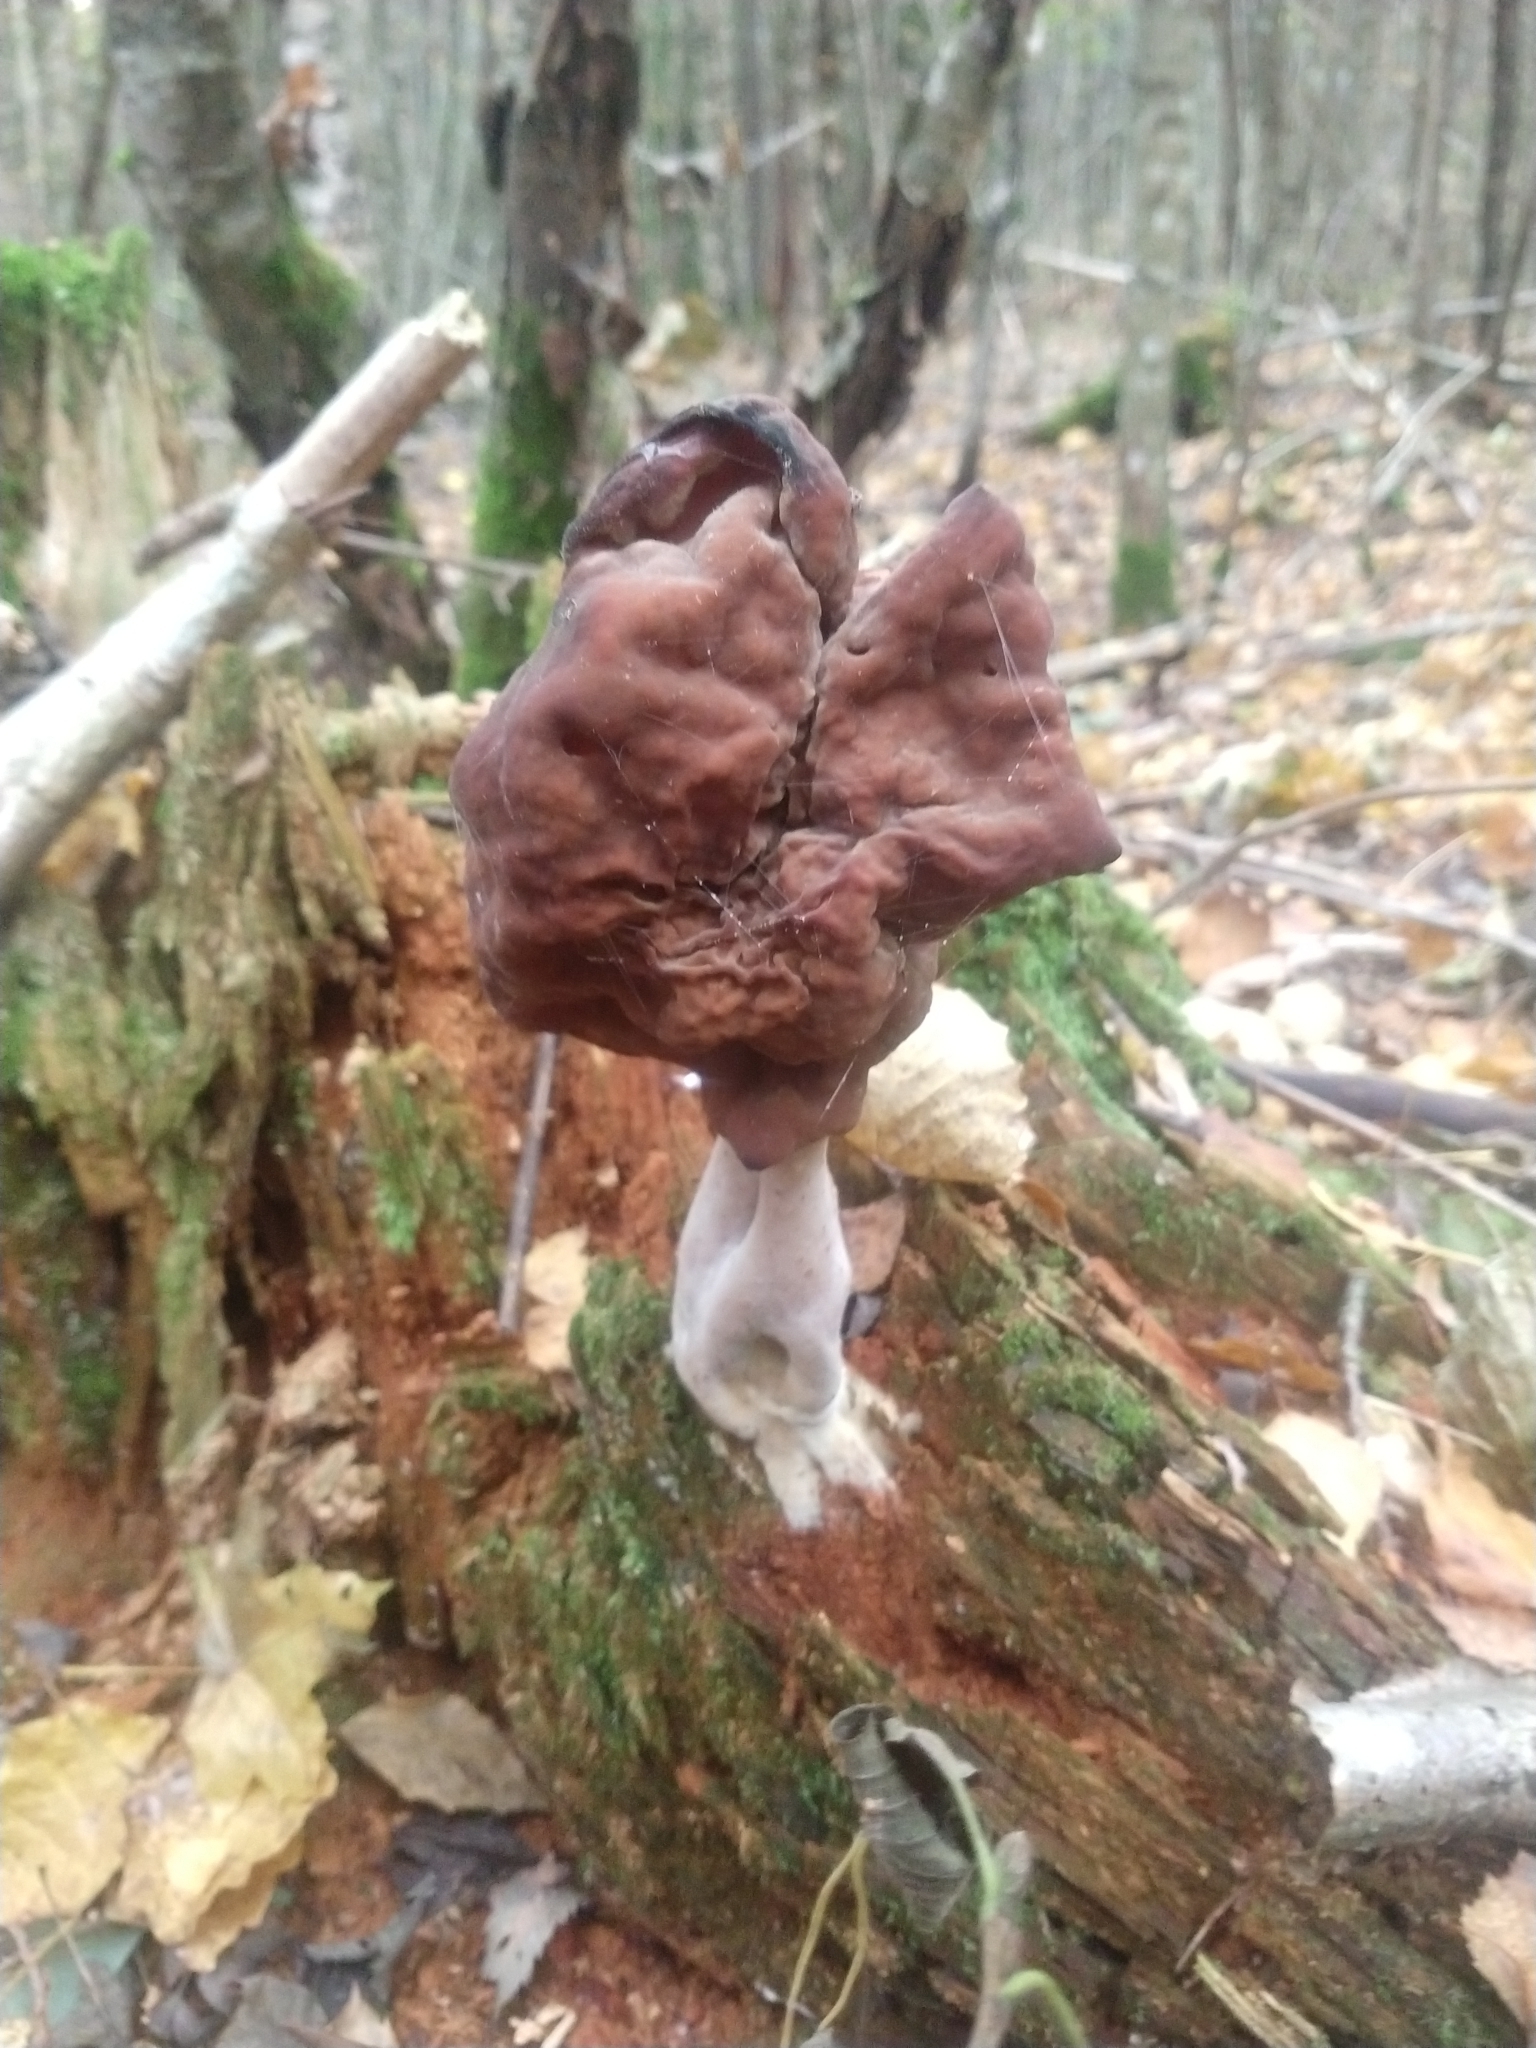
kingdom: Fungi
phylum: Ascomycota
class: Pezizomycetes
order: Pezizales
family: Discinaceae
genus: Gyromitra
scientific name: Gyromitra infula
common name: Pouched false morel
